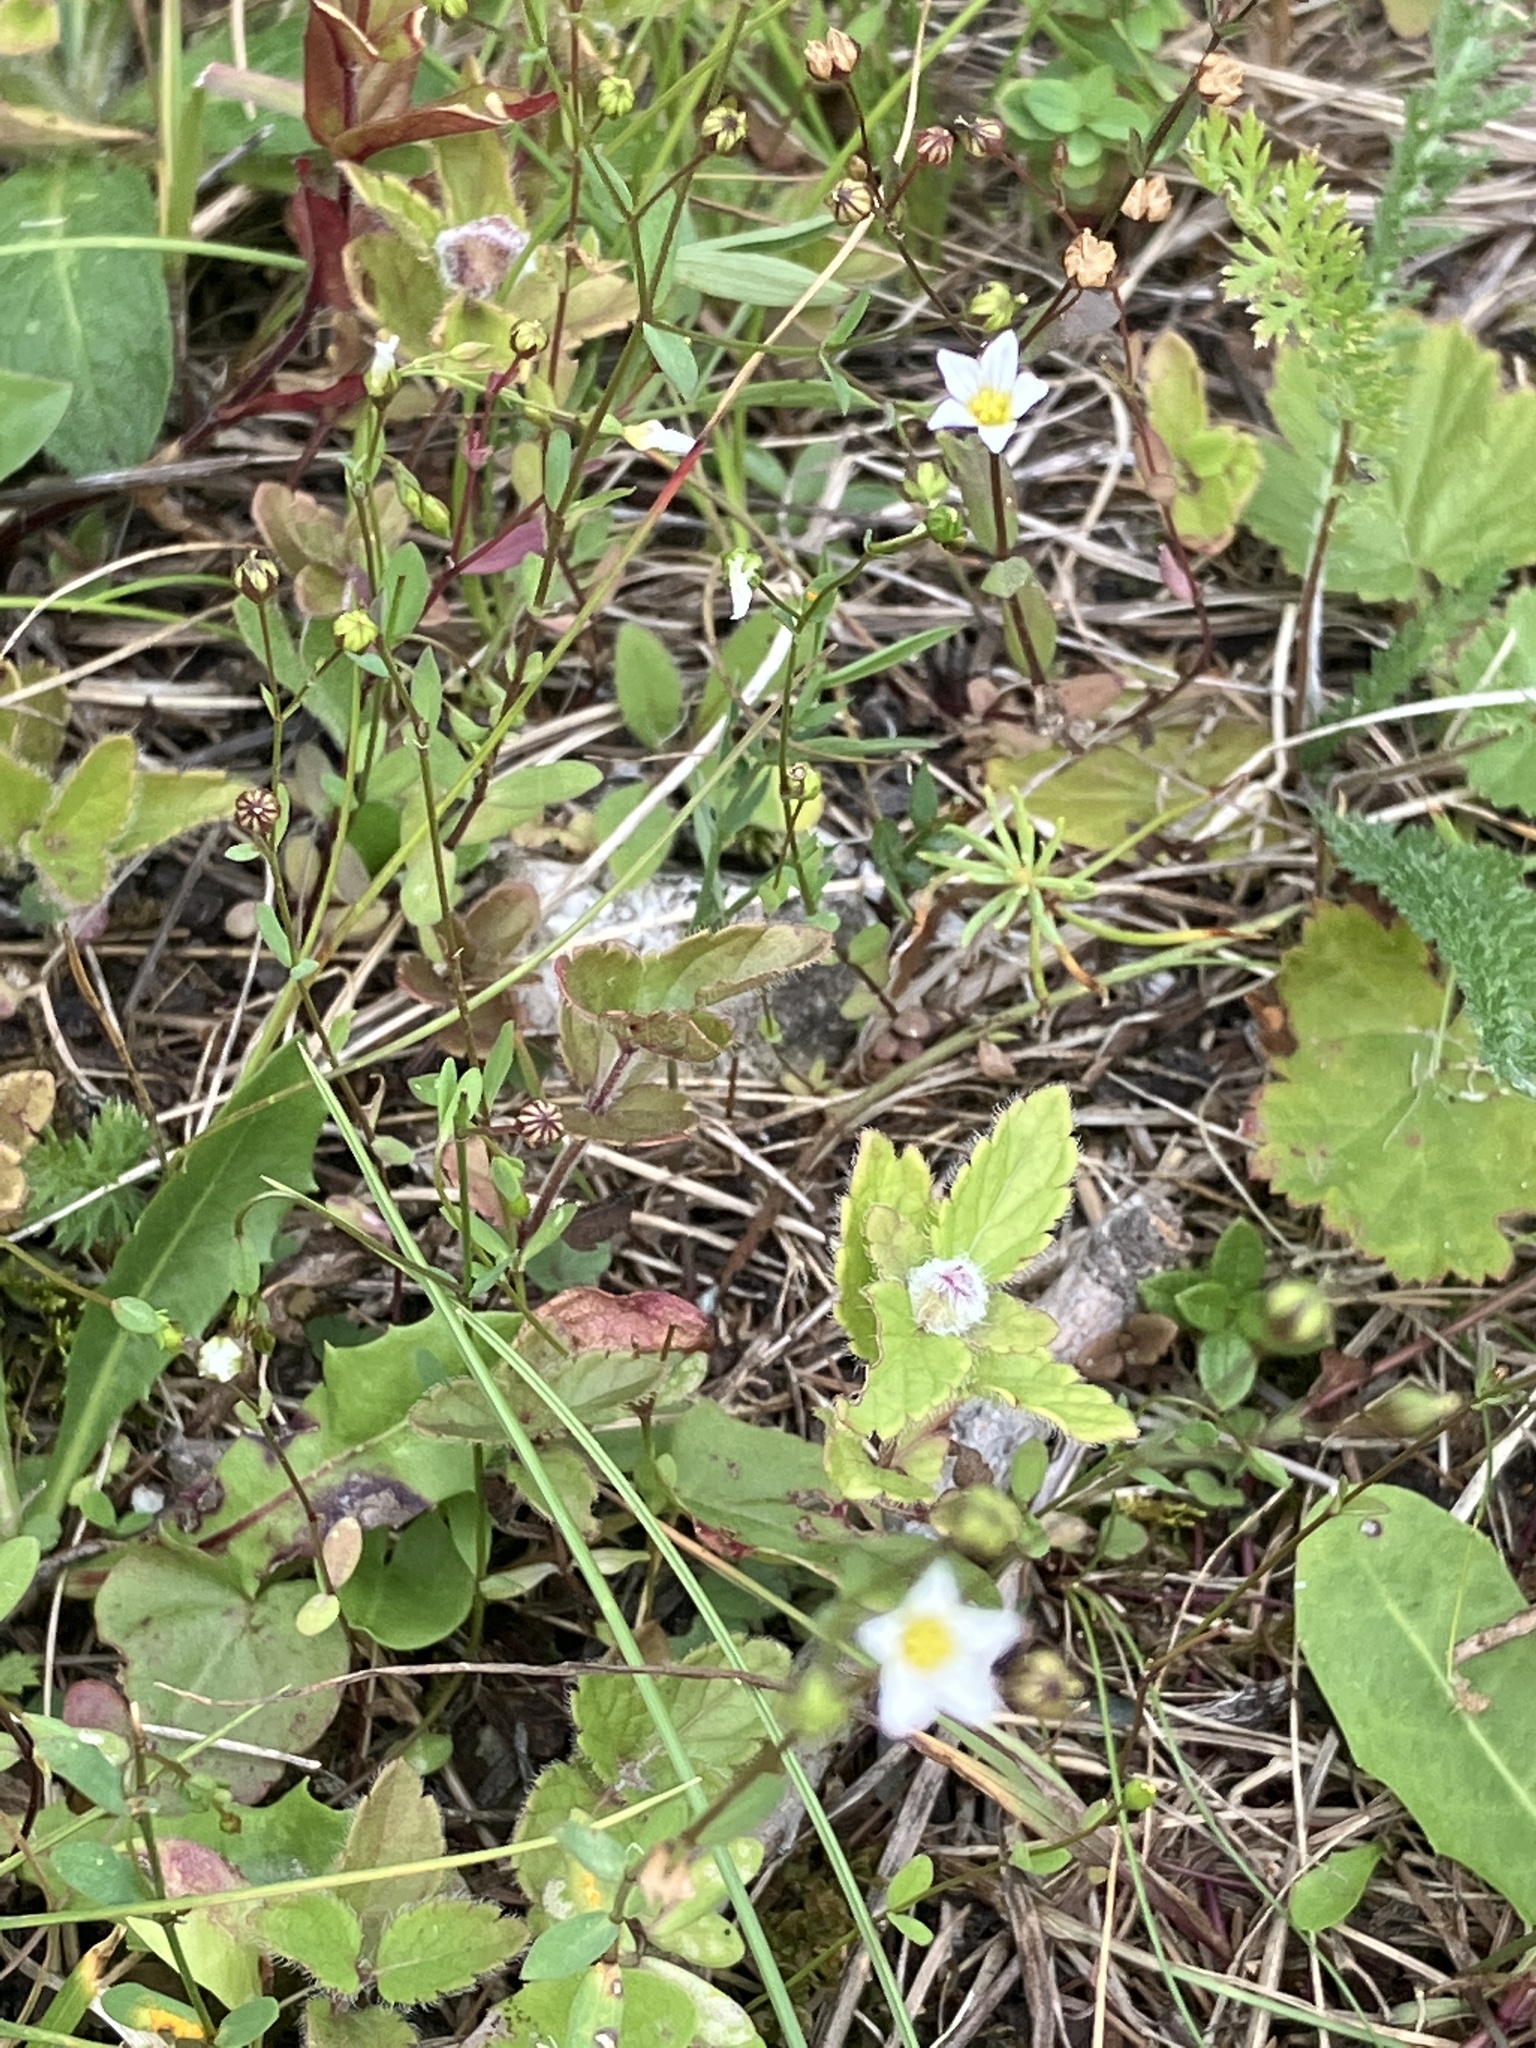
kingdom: Plantae
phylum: Tracheophyta
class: Magnoliopsida
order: Malpighiales
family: Linaceae
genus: Linum
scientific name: Linum catharticum
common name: Fairy flax
